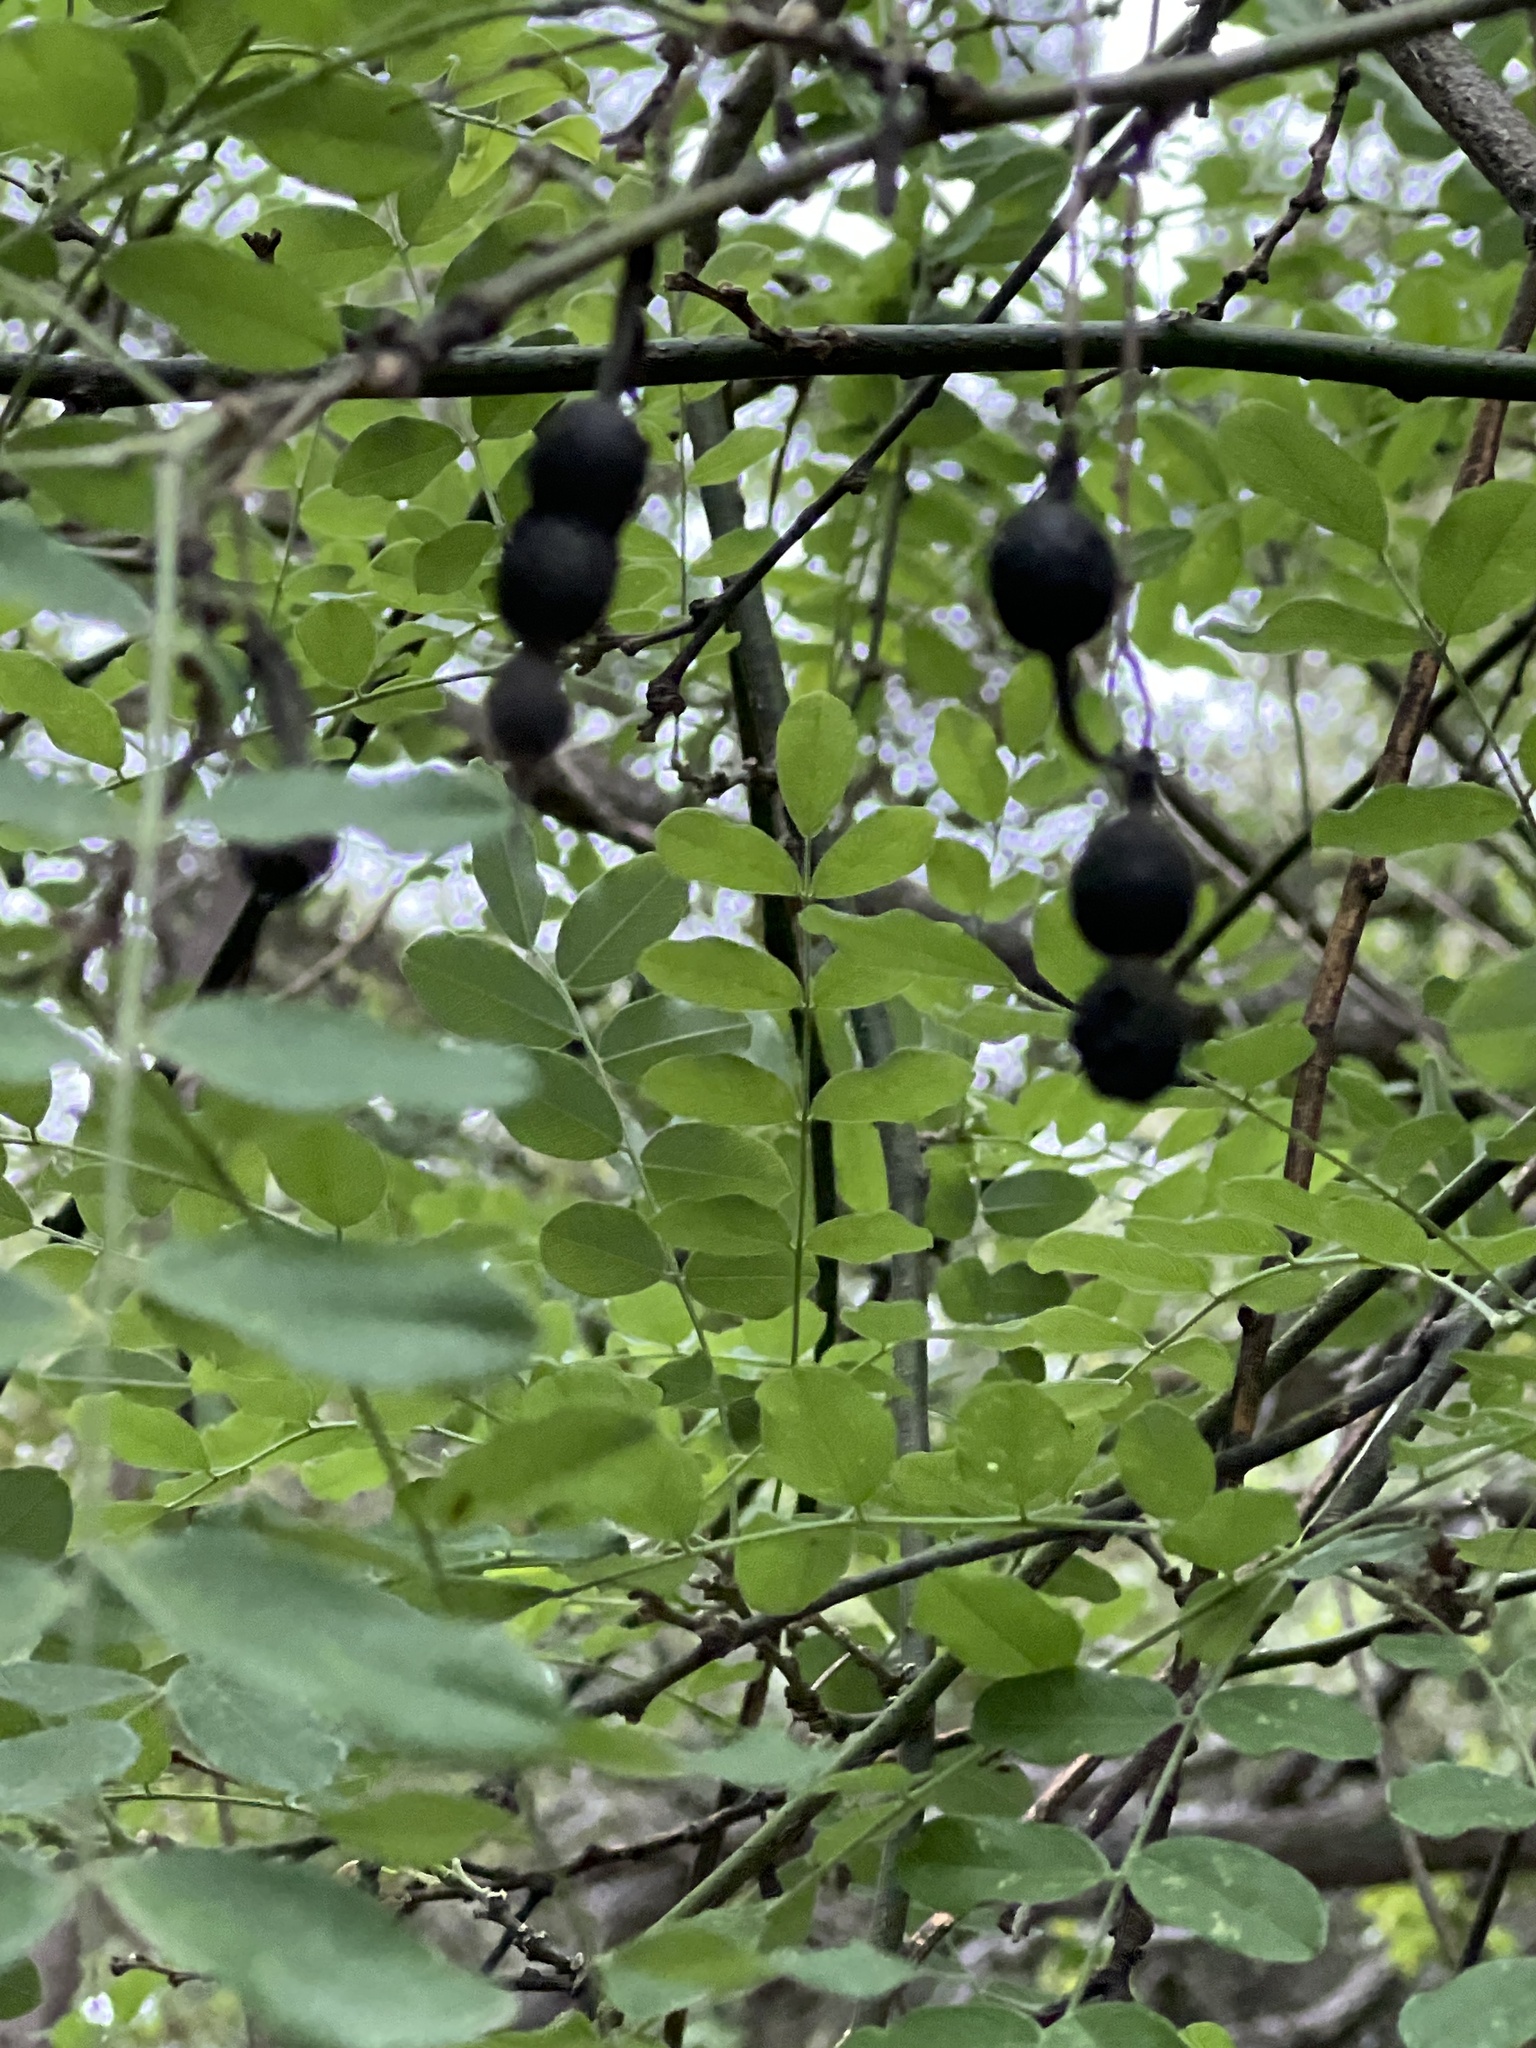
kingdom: Plantae
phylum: Tracheophyta
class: Magnoliopsida
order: Fabales
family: Fabaceae
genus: Styphnolobium
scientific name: Styphnolobium affine
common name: Texas sophora
